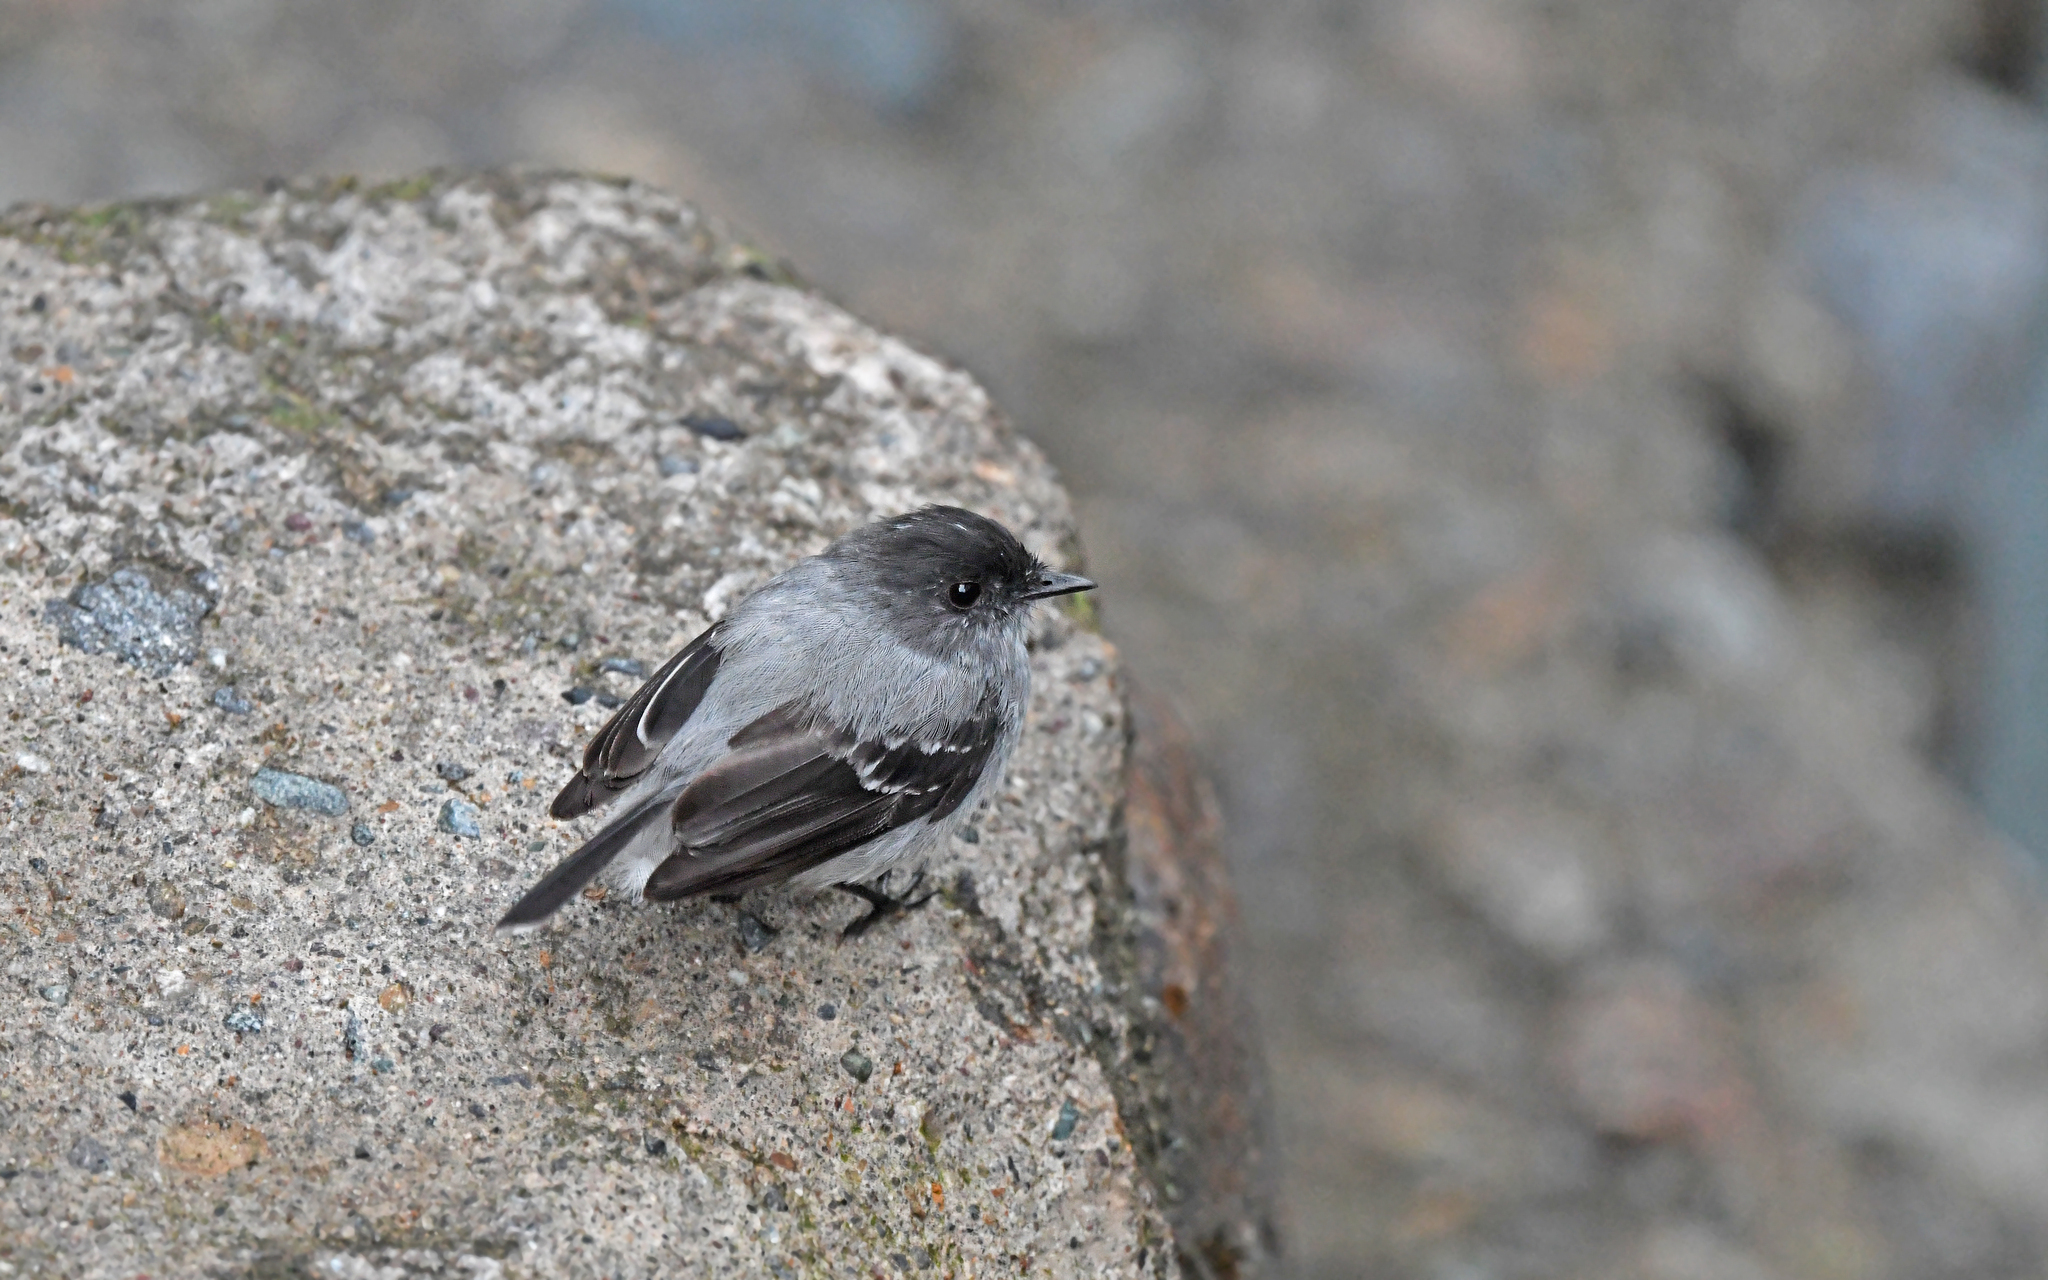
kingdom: Animalia
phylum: Chordata
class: Aves
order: Passeriformes
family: Tyrannidae
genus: Serpophaga
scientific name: Serpophaga cinerea
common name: Torrent tyrannulet
